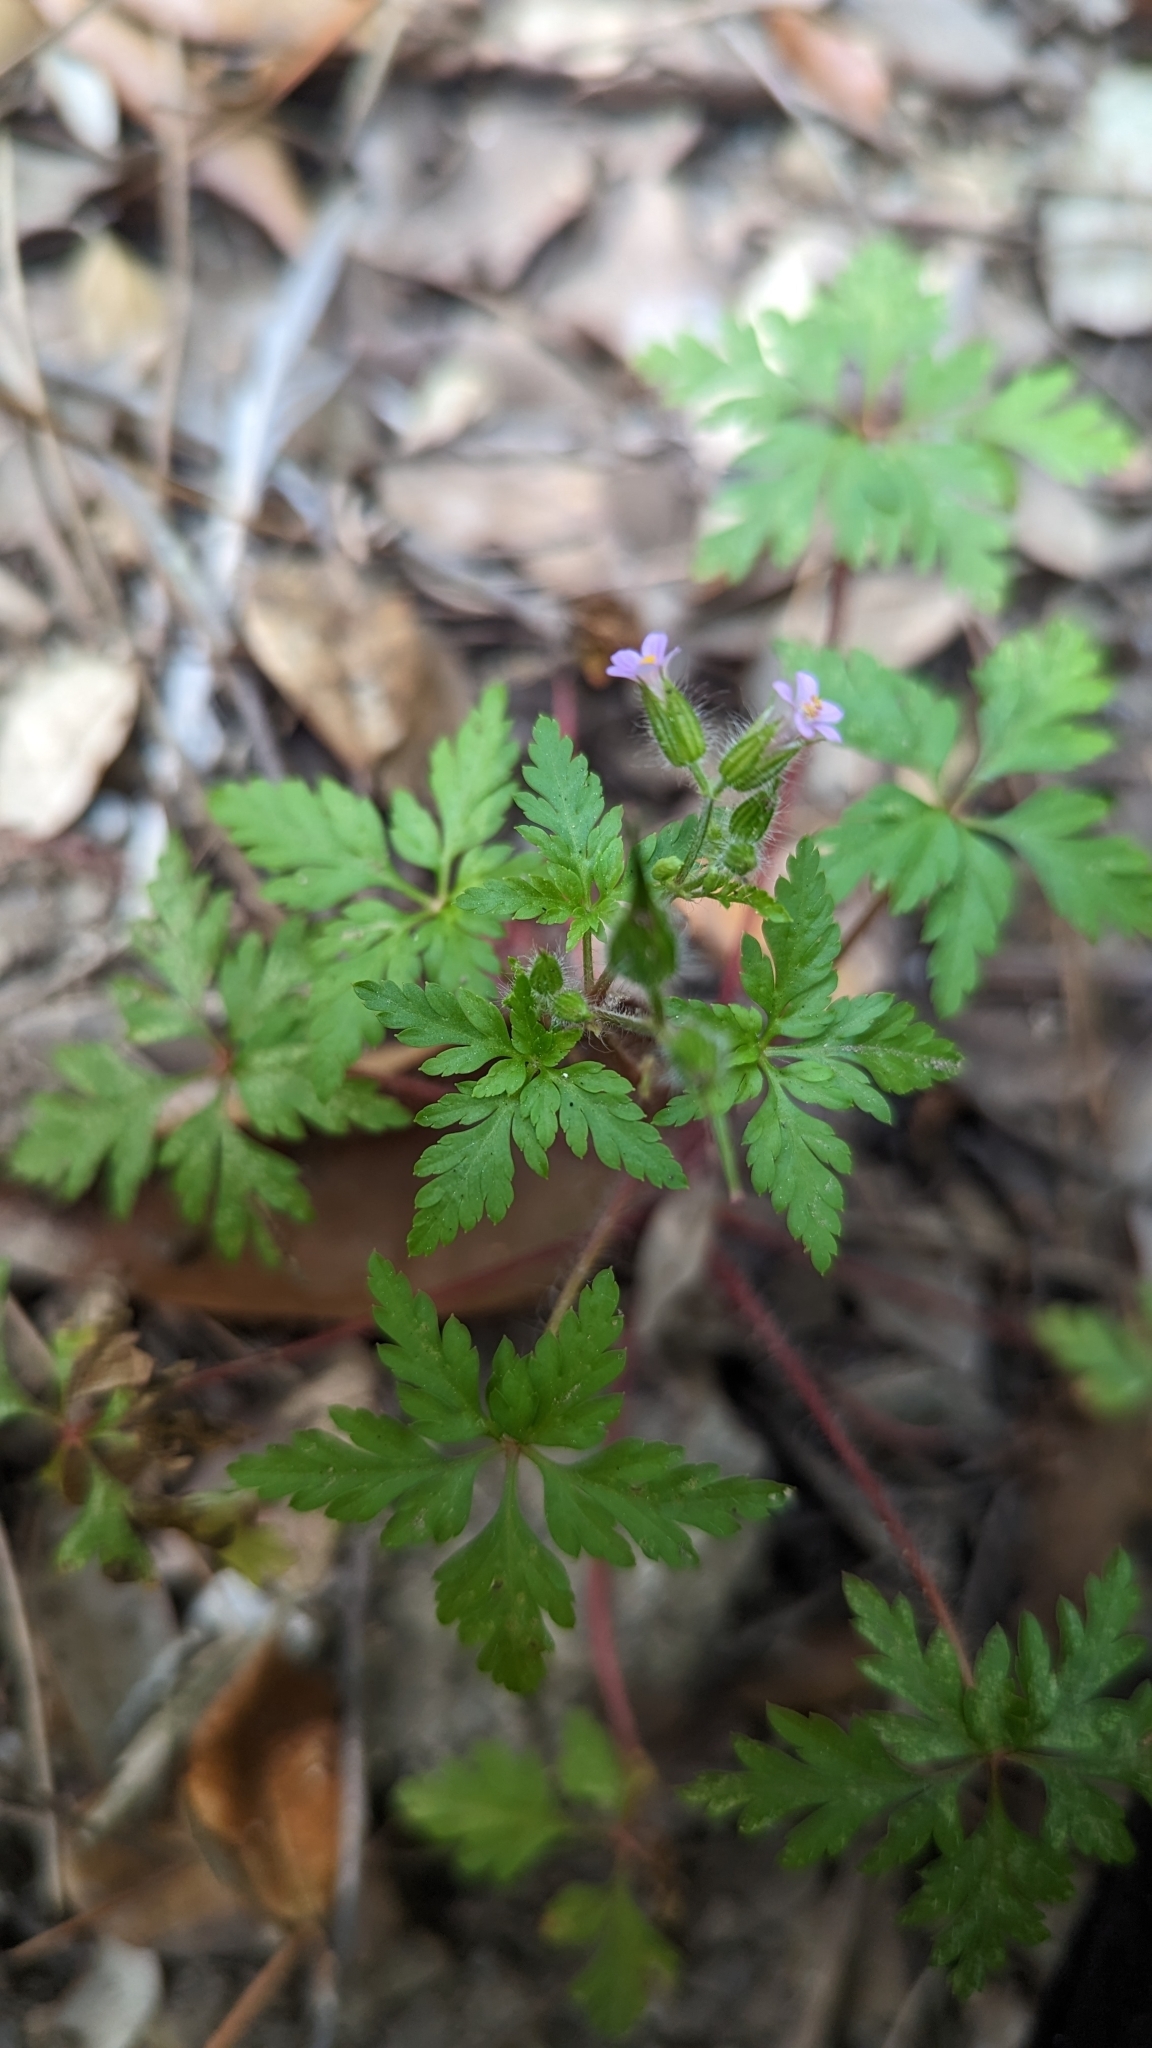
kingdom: Plantae
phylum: Tracheophyta
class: Magnoliopsida
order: Geraniales
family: Geraniaceae
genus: Geranium
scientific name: Geranium purpureum
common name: Little-robin
